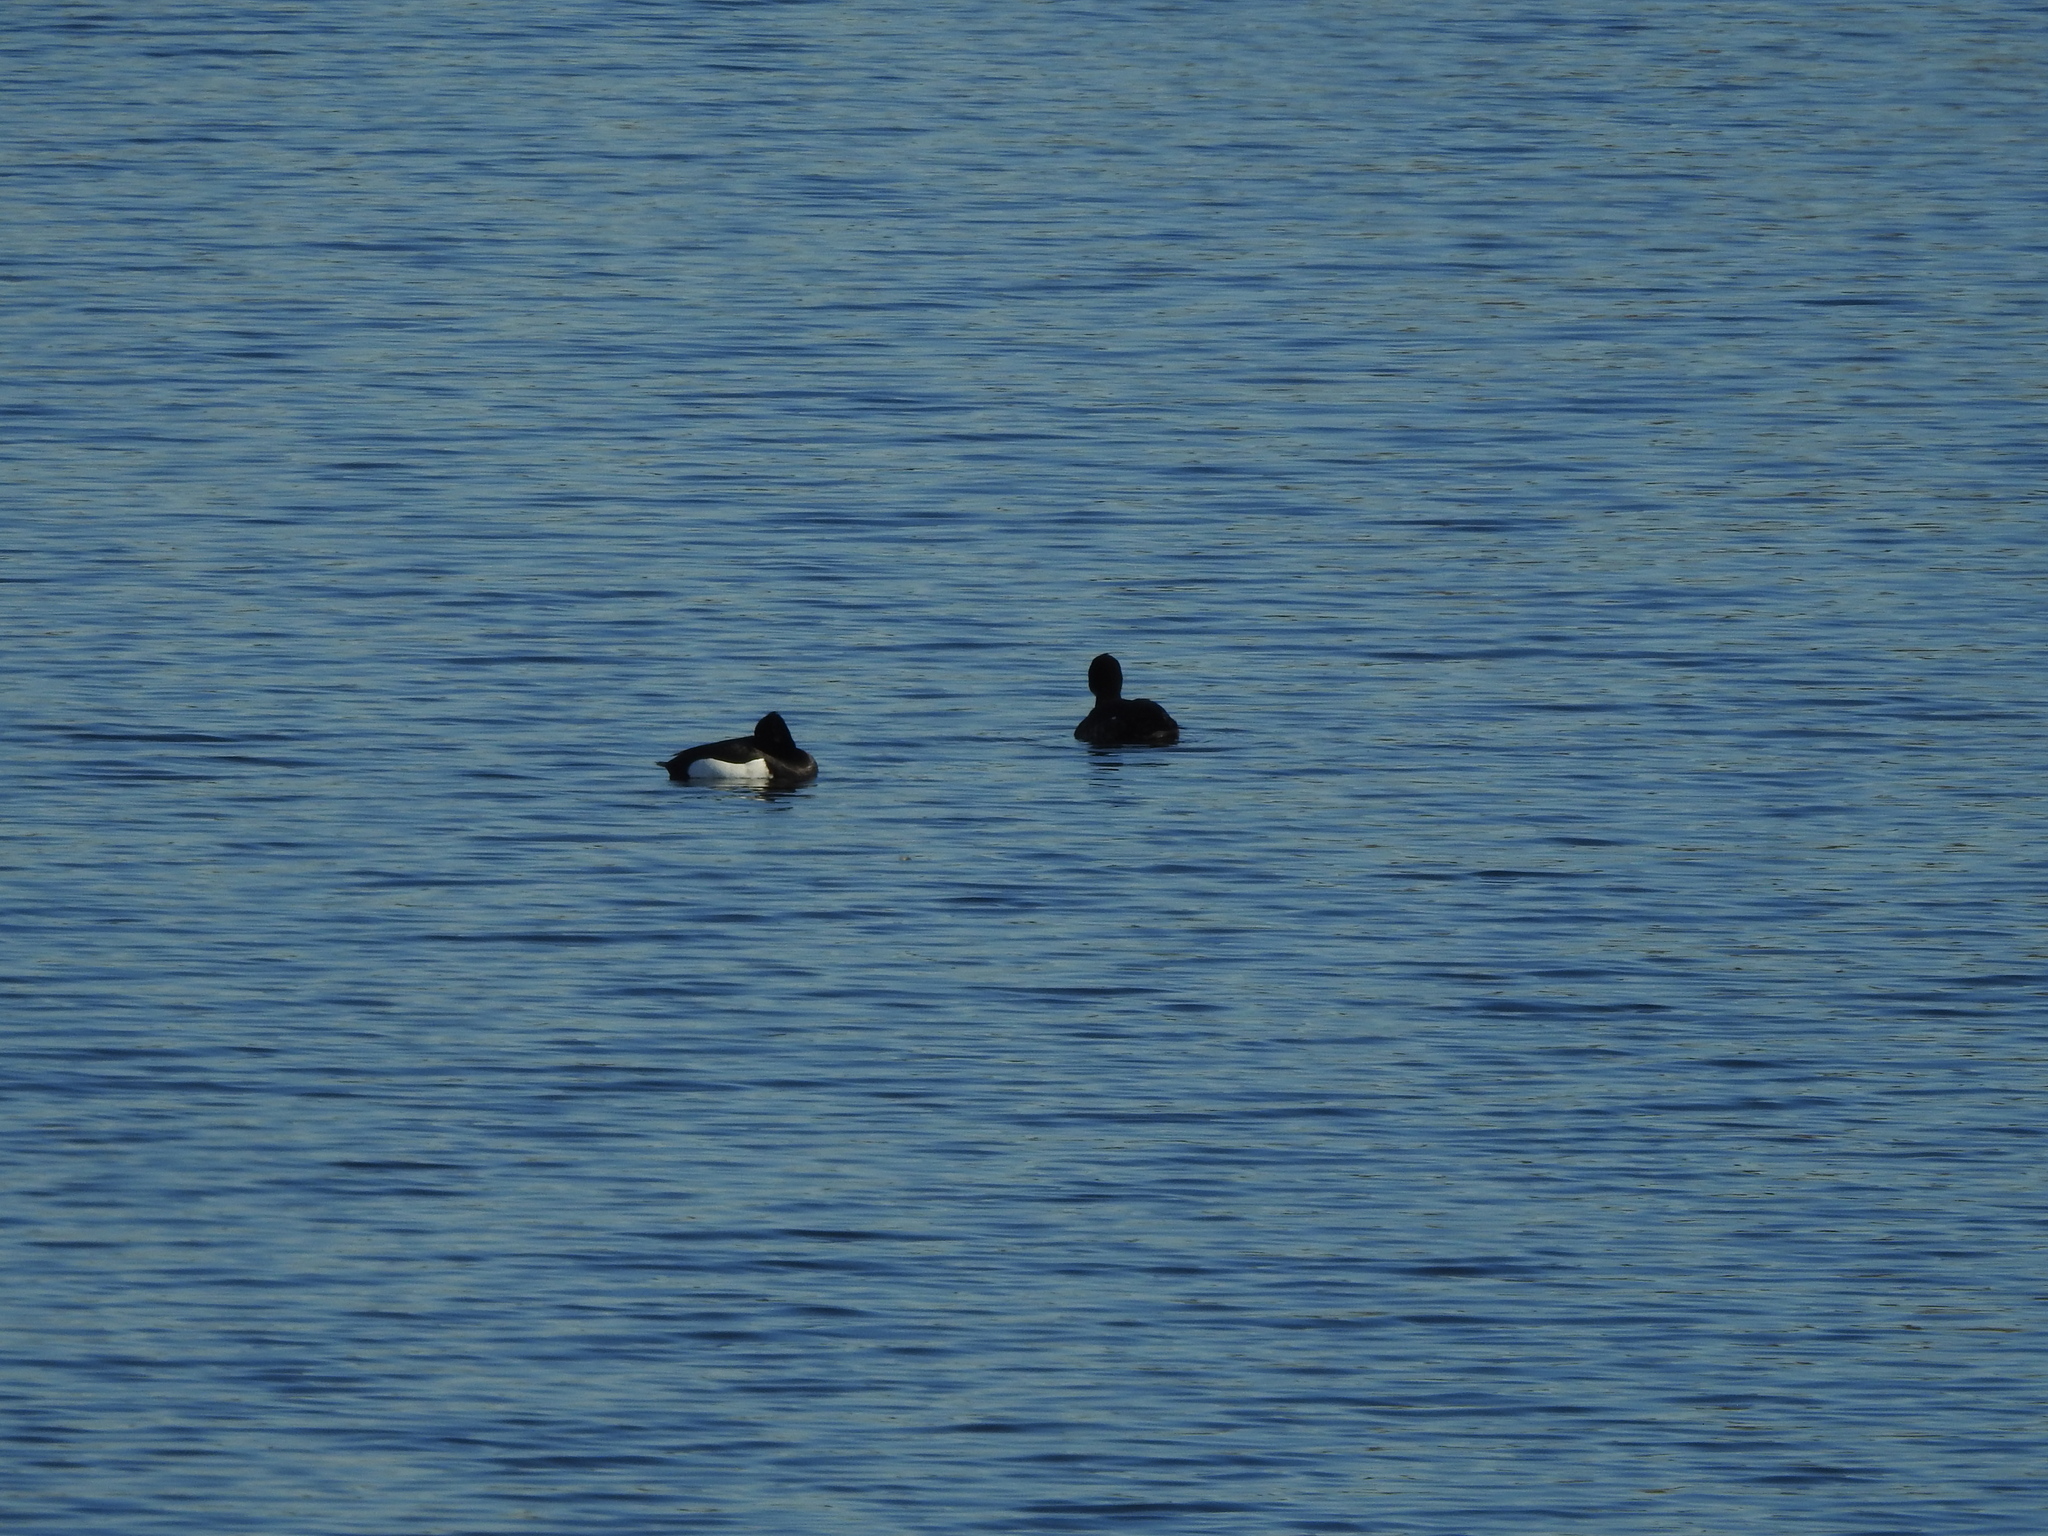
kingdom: Animalia
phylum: Chordata
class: Aves
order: Anseriformes
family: Anatidae
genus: Aythya
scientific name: Aythya fuligula
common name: Tufted duck
